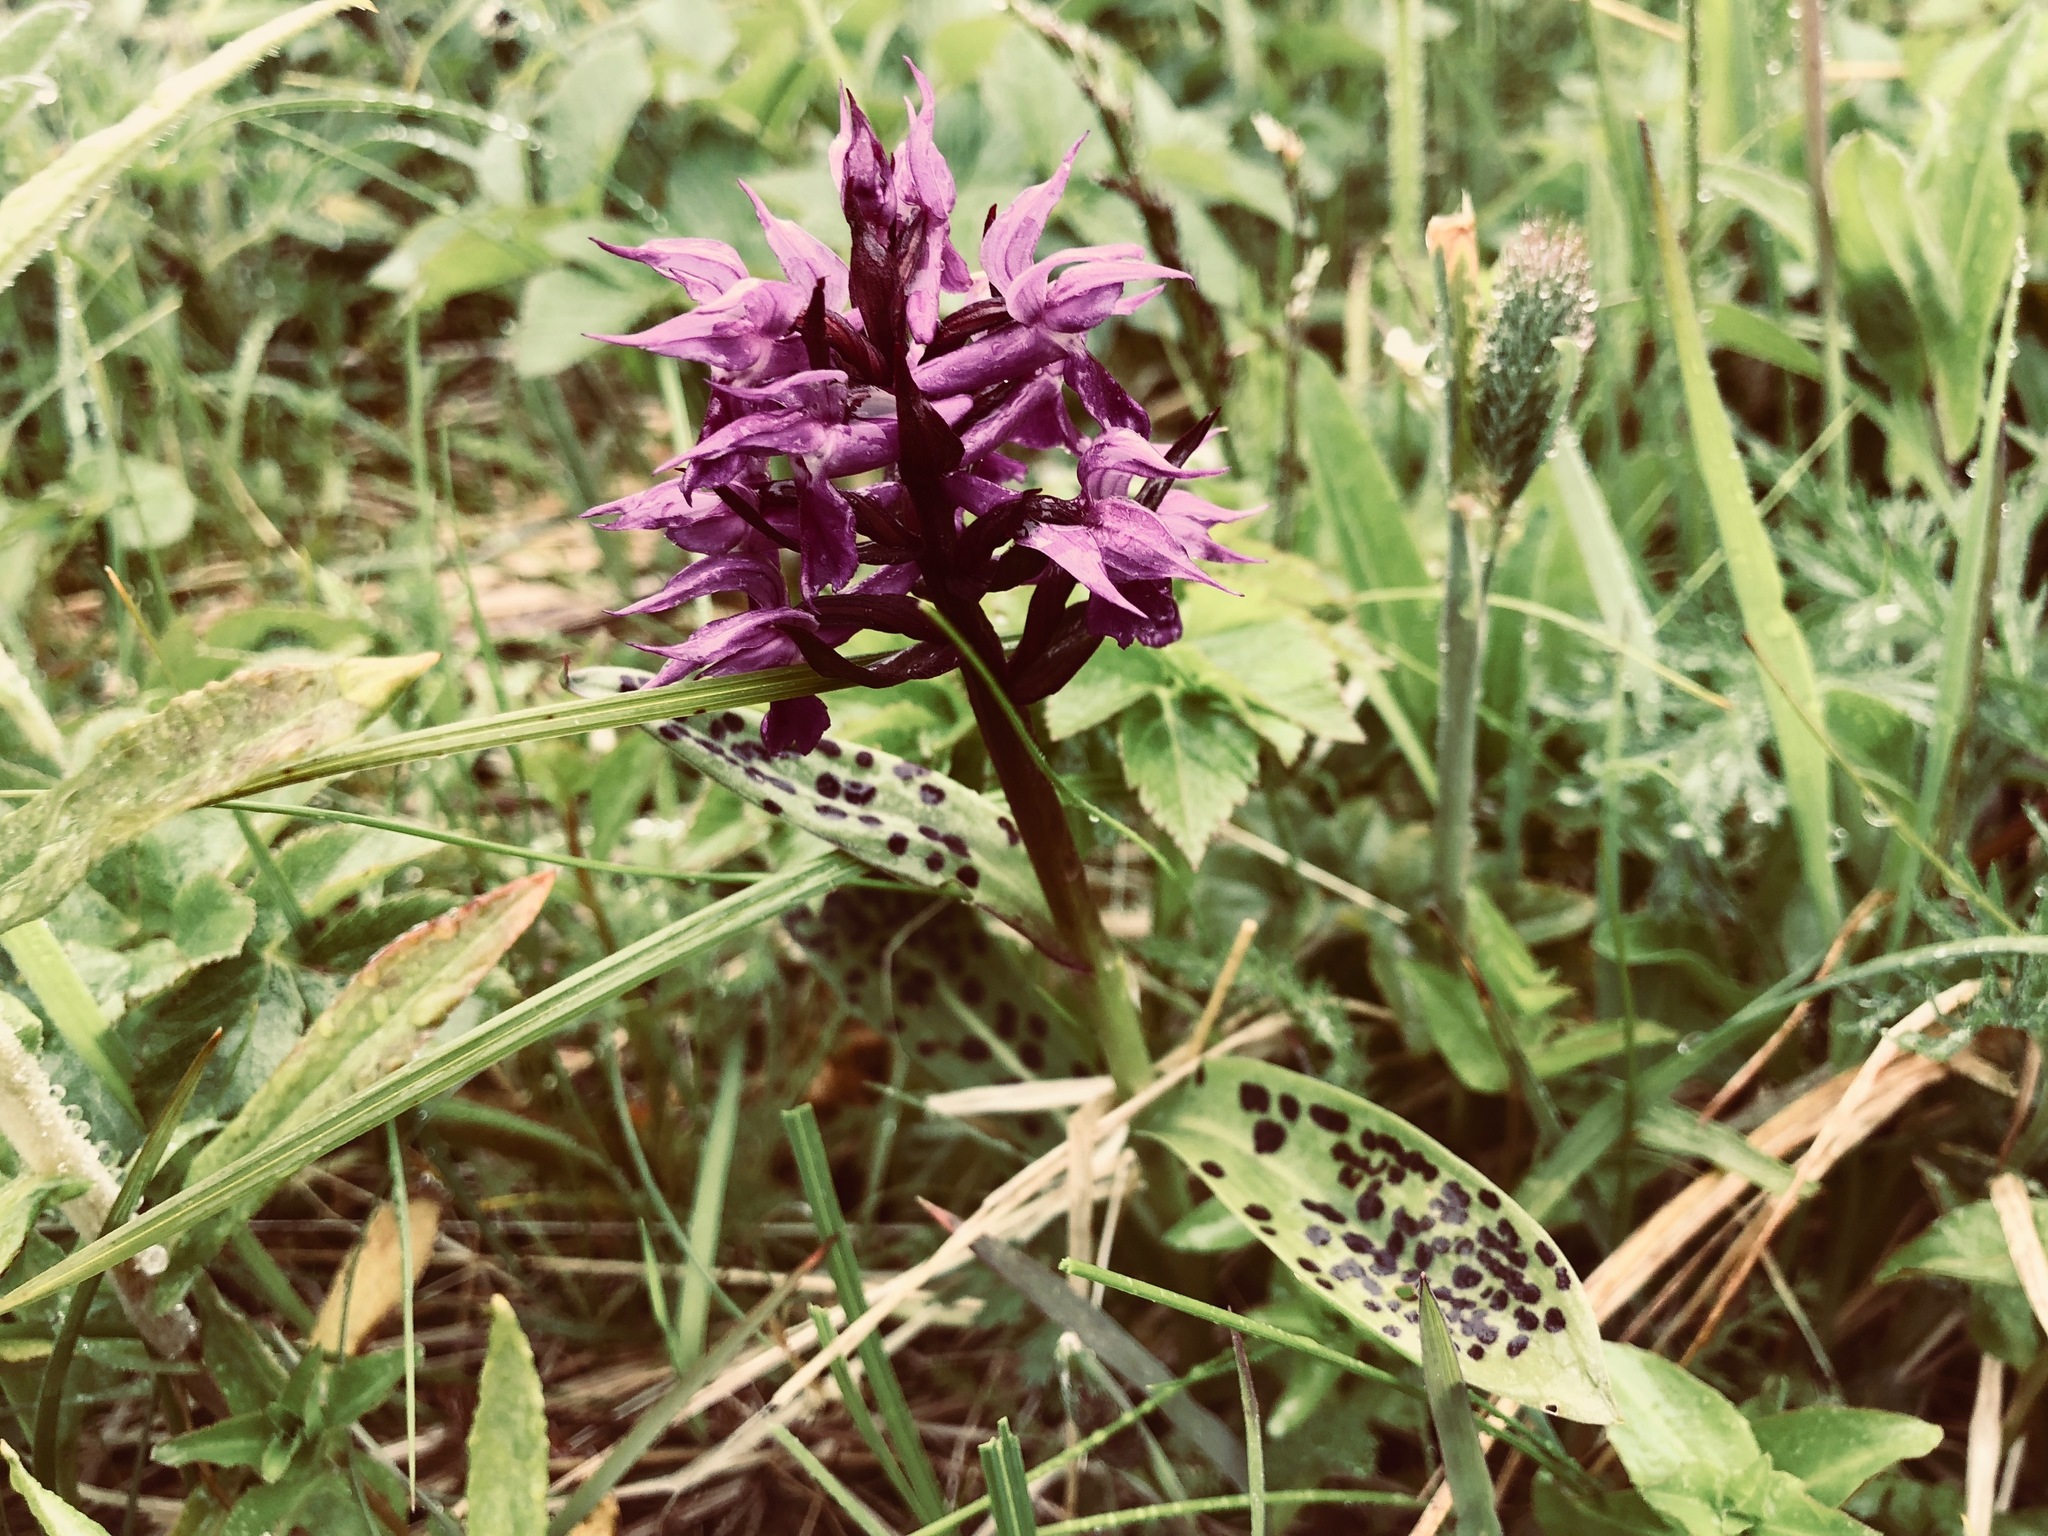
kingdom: Plantae
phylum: Tracheophyta
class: Liliopsida
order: Asparagales
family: Orchidaceae
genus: Dactylorhiza
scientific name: Dactylorhiza aristata
